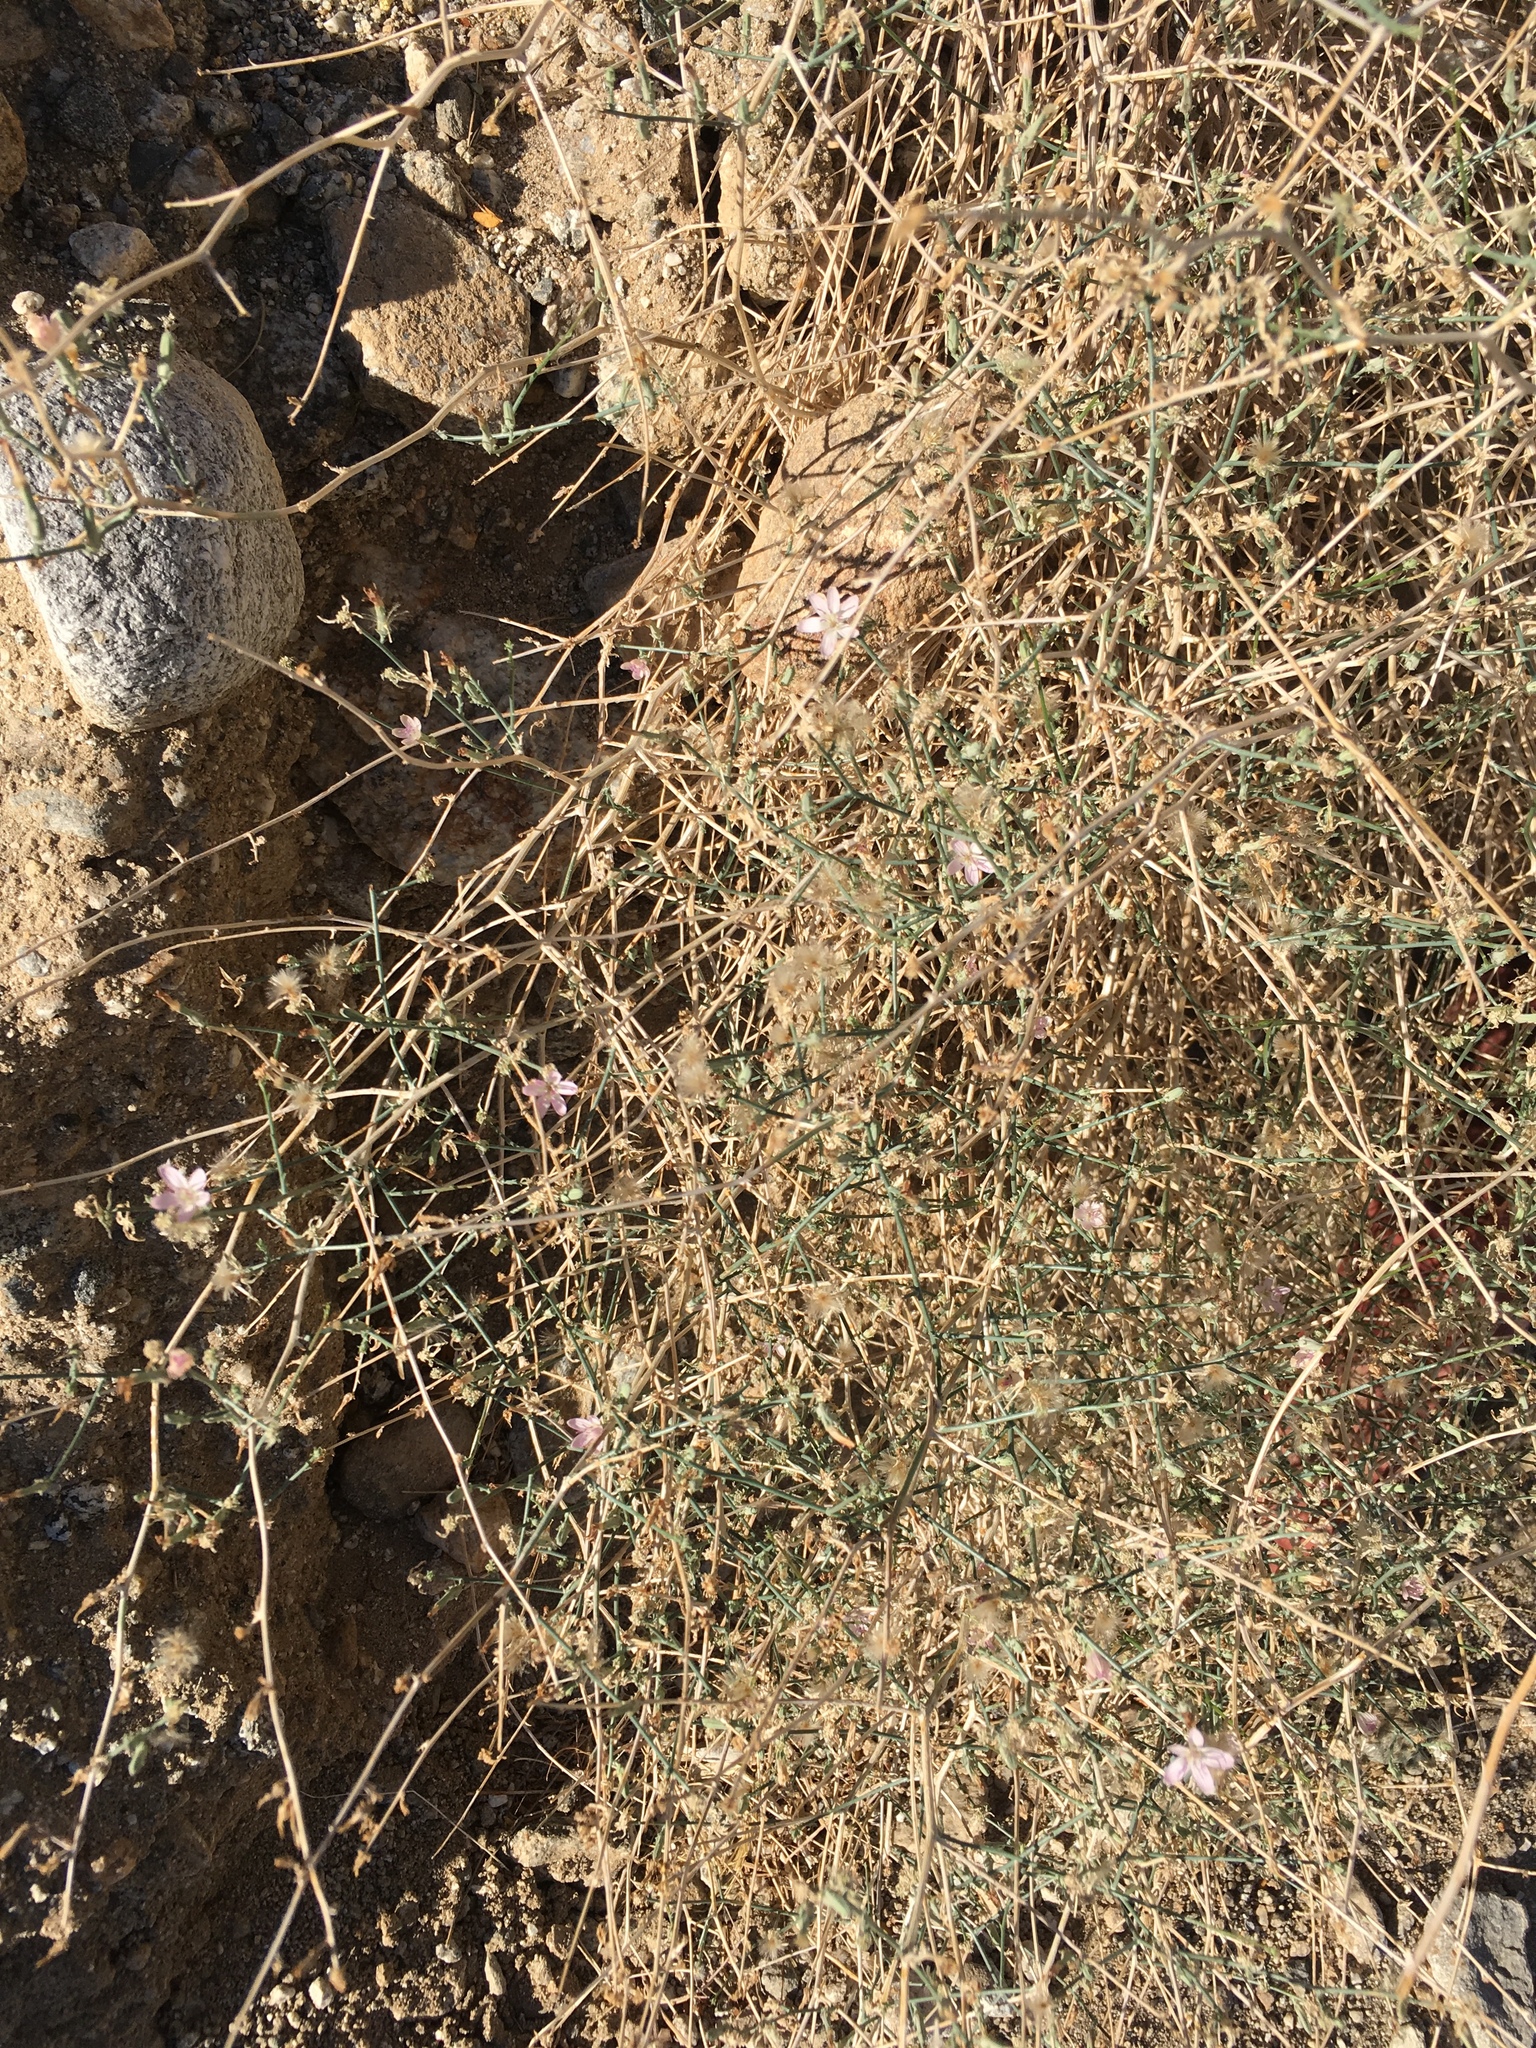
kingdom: Plantae
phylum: Tracheophyta
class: Magnoliopsida
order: Asterales
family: Asteraceae
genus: Stephanomeria
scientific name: Stephanomeria pauciflora
